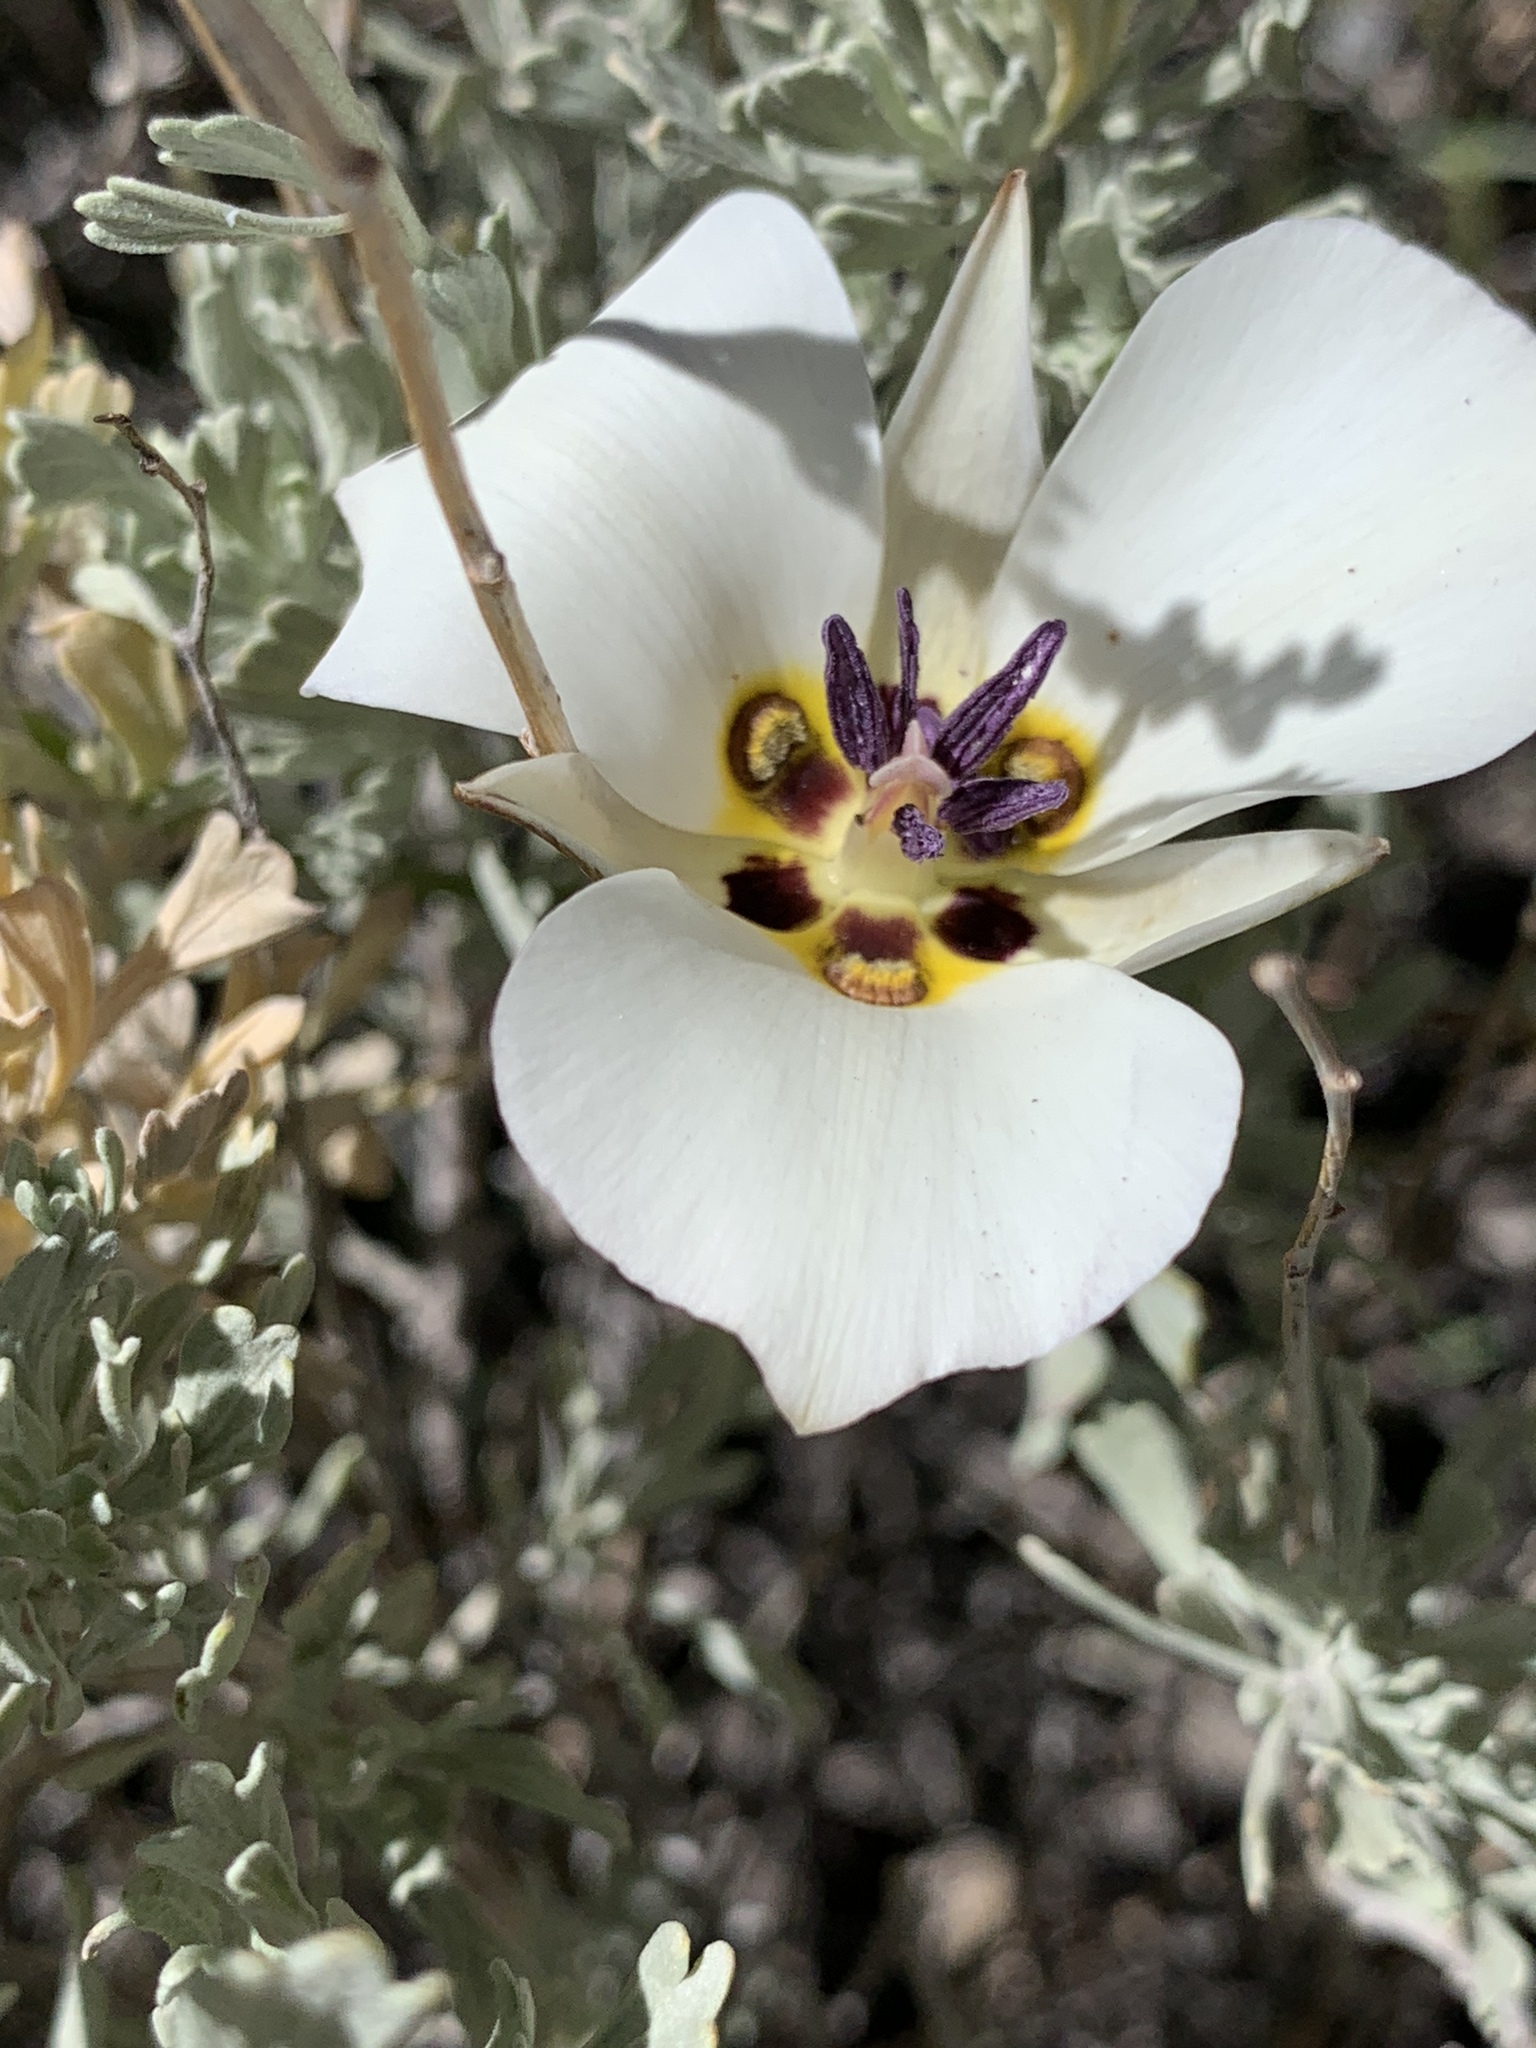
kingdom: Plantae
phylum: Tracheophyta
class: Liliopsida
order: Liliales
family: Liliaceae
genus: Calochortus
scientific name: Calochortus bruneaunis
